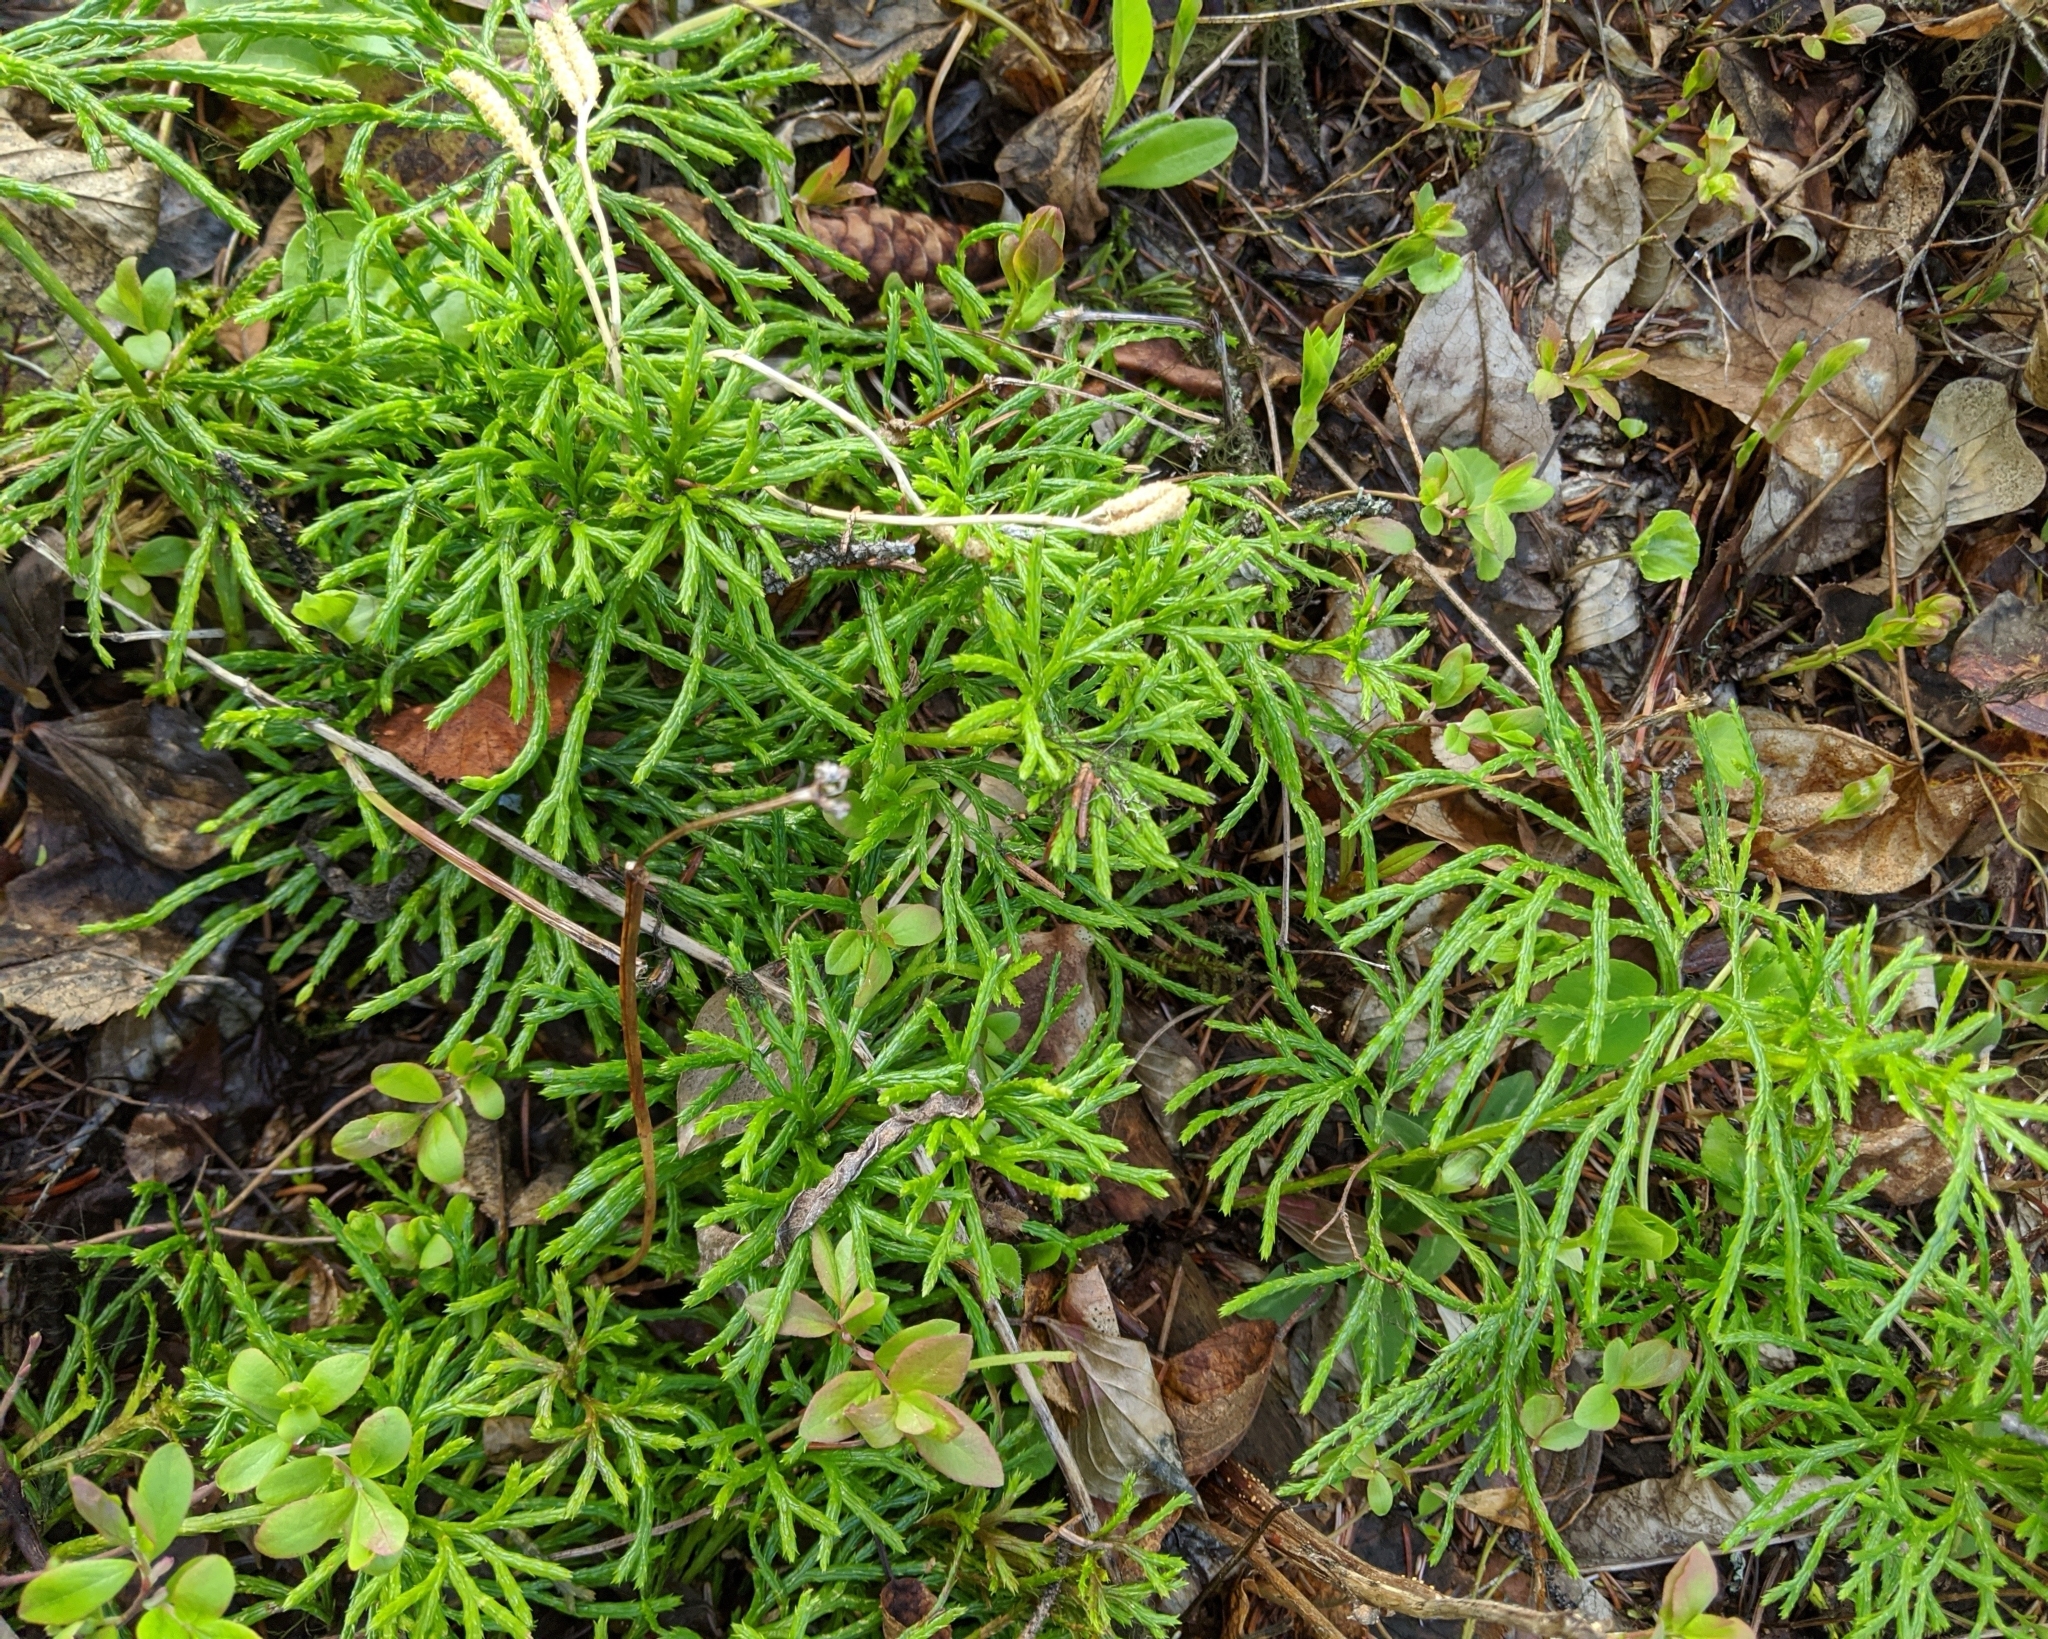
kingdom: Plantae
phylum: Tracheophyta
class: Lycopodiopsida
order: Lycopodiales
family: Lycopodiaceae
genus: Diphasiastrum
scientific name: Diphasiastrum complanatum
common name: Northern running-pine
